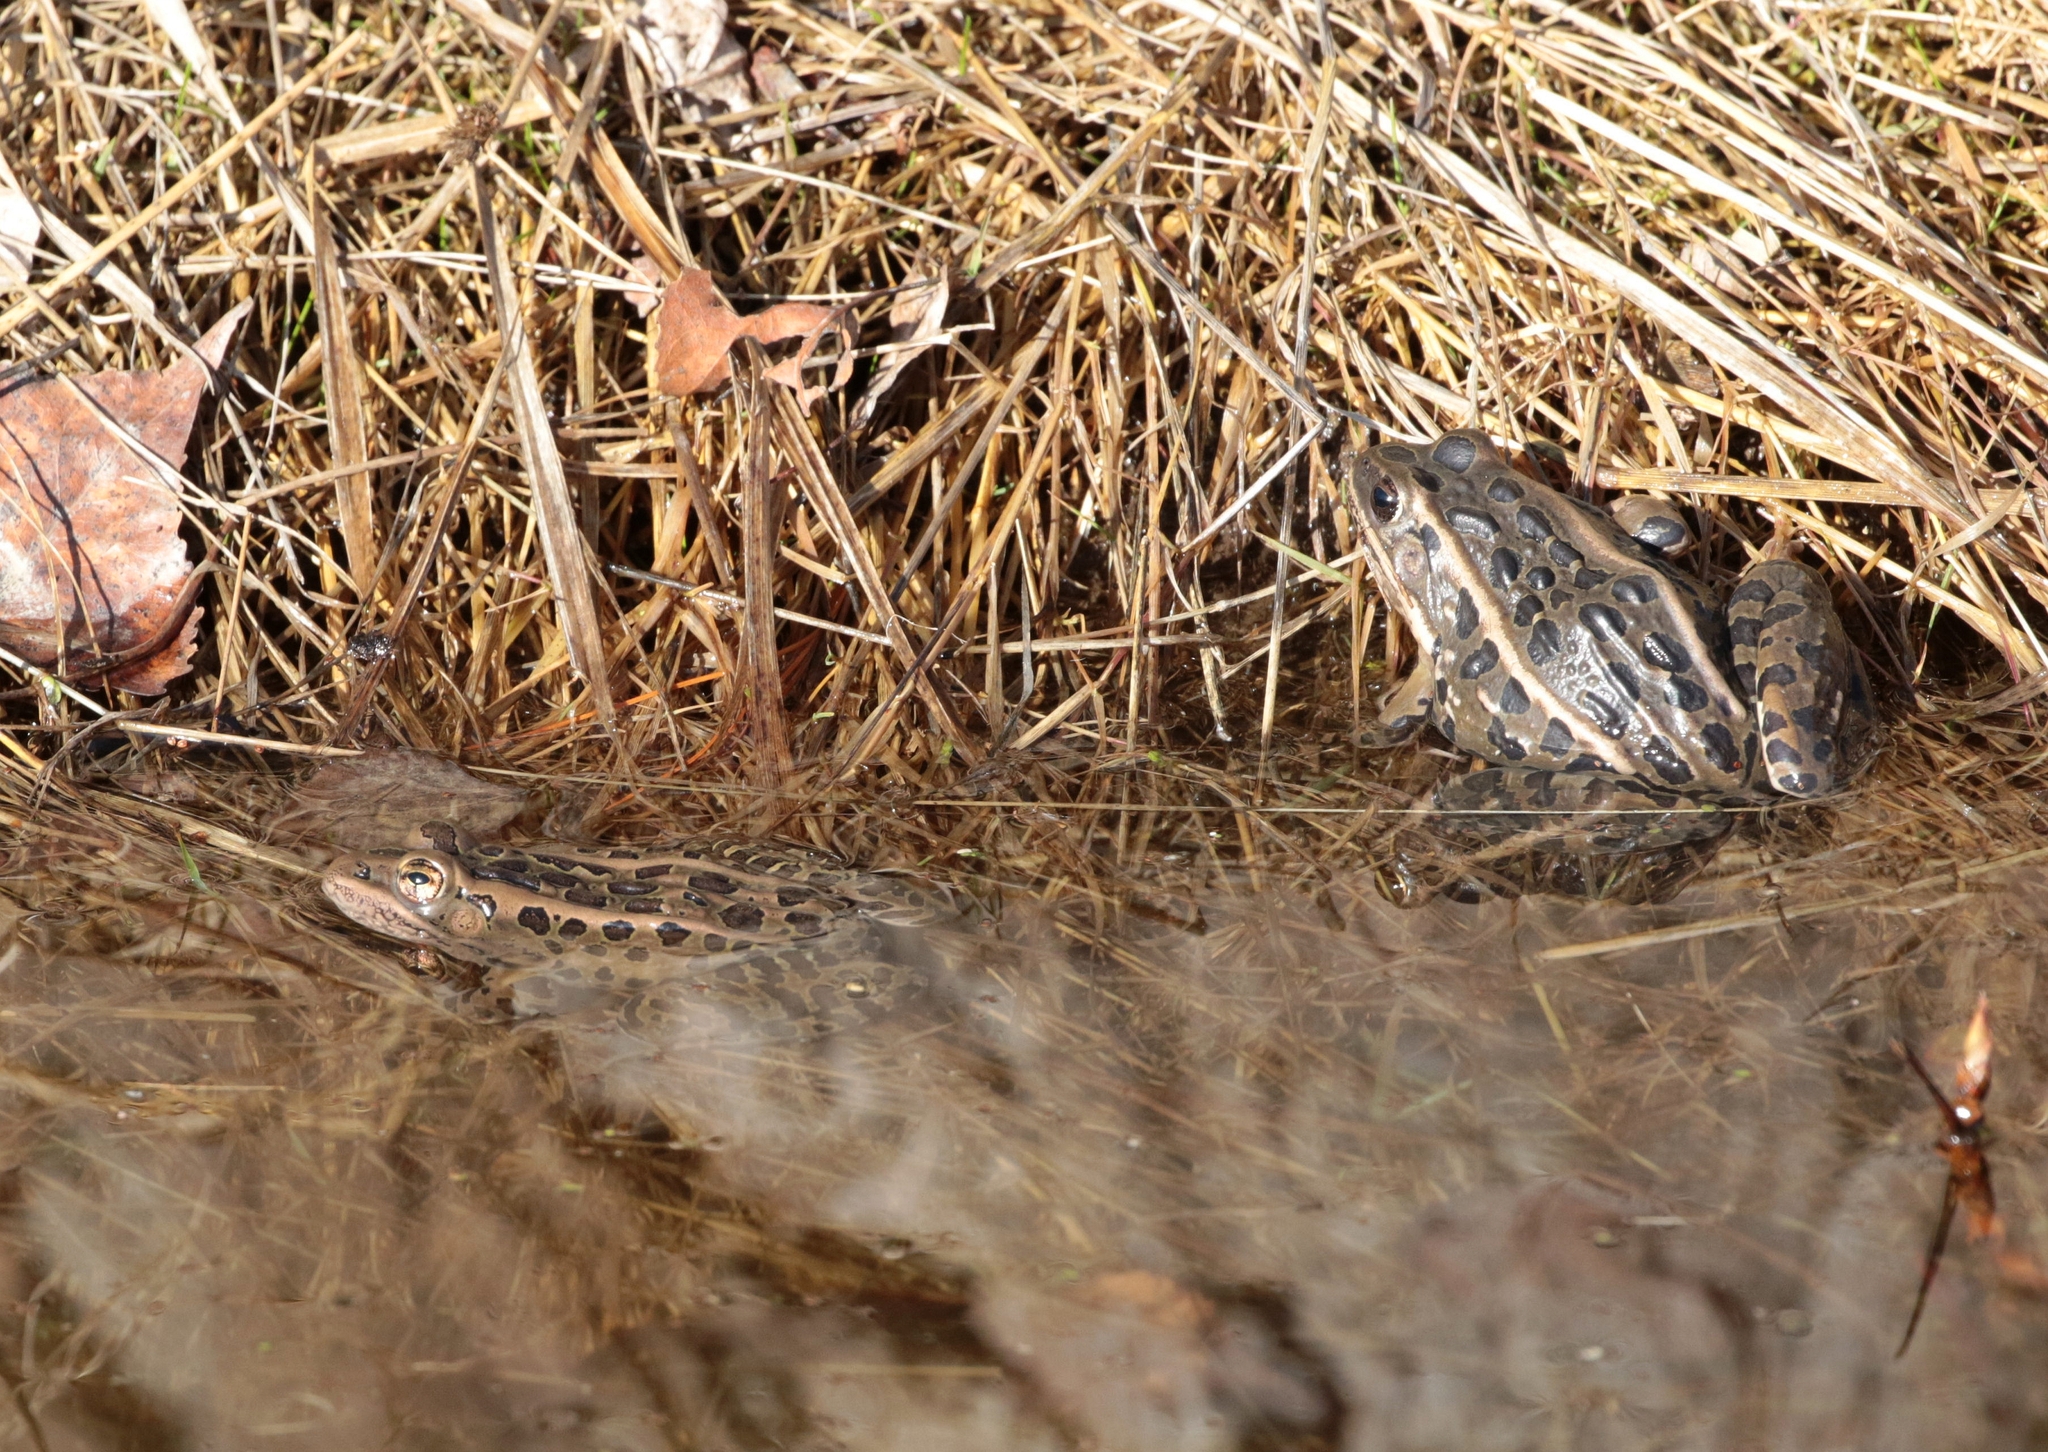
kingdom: Animalia
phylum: Chordata
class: Amphibia
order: Anura
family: Ranidae
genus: Lithobates
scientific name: Lithobates pipiens
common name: Northern leopard frog
